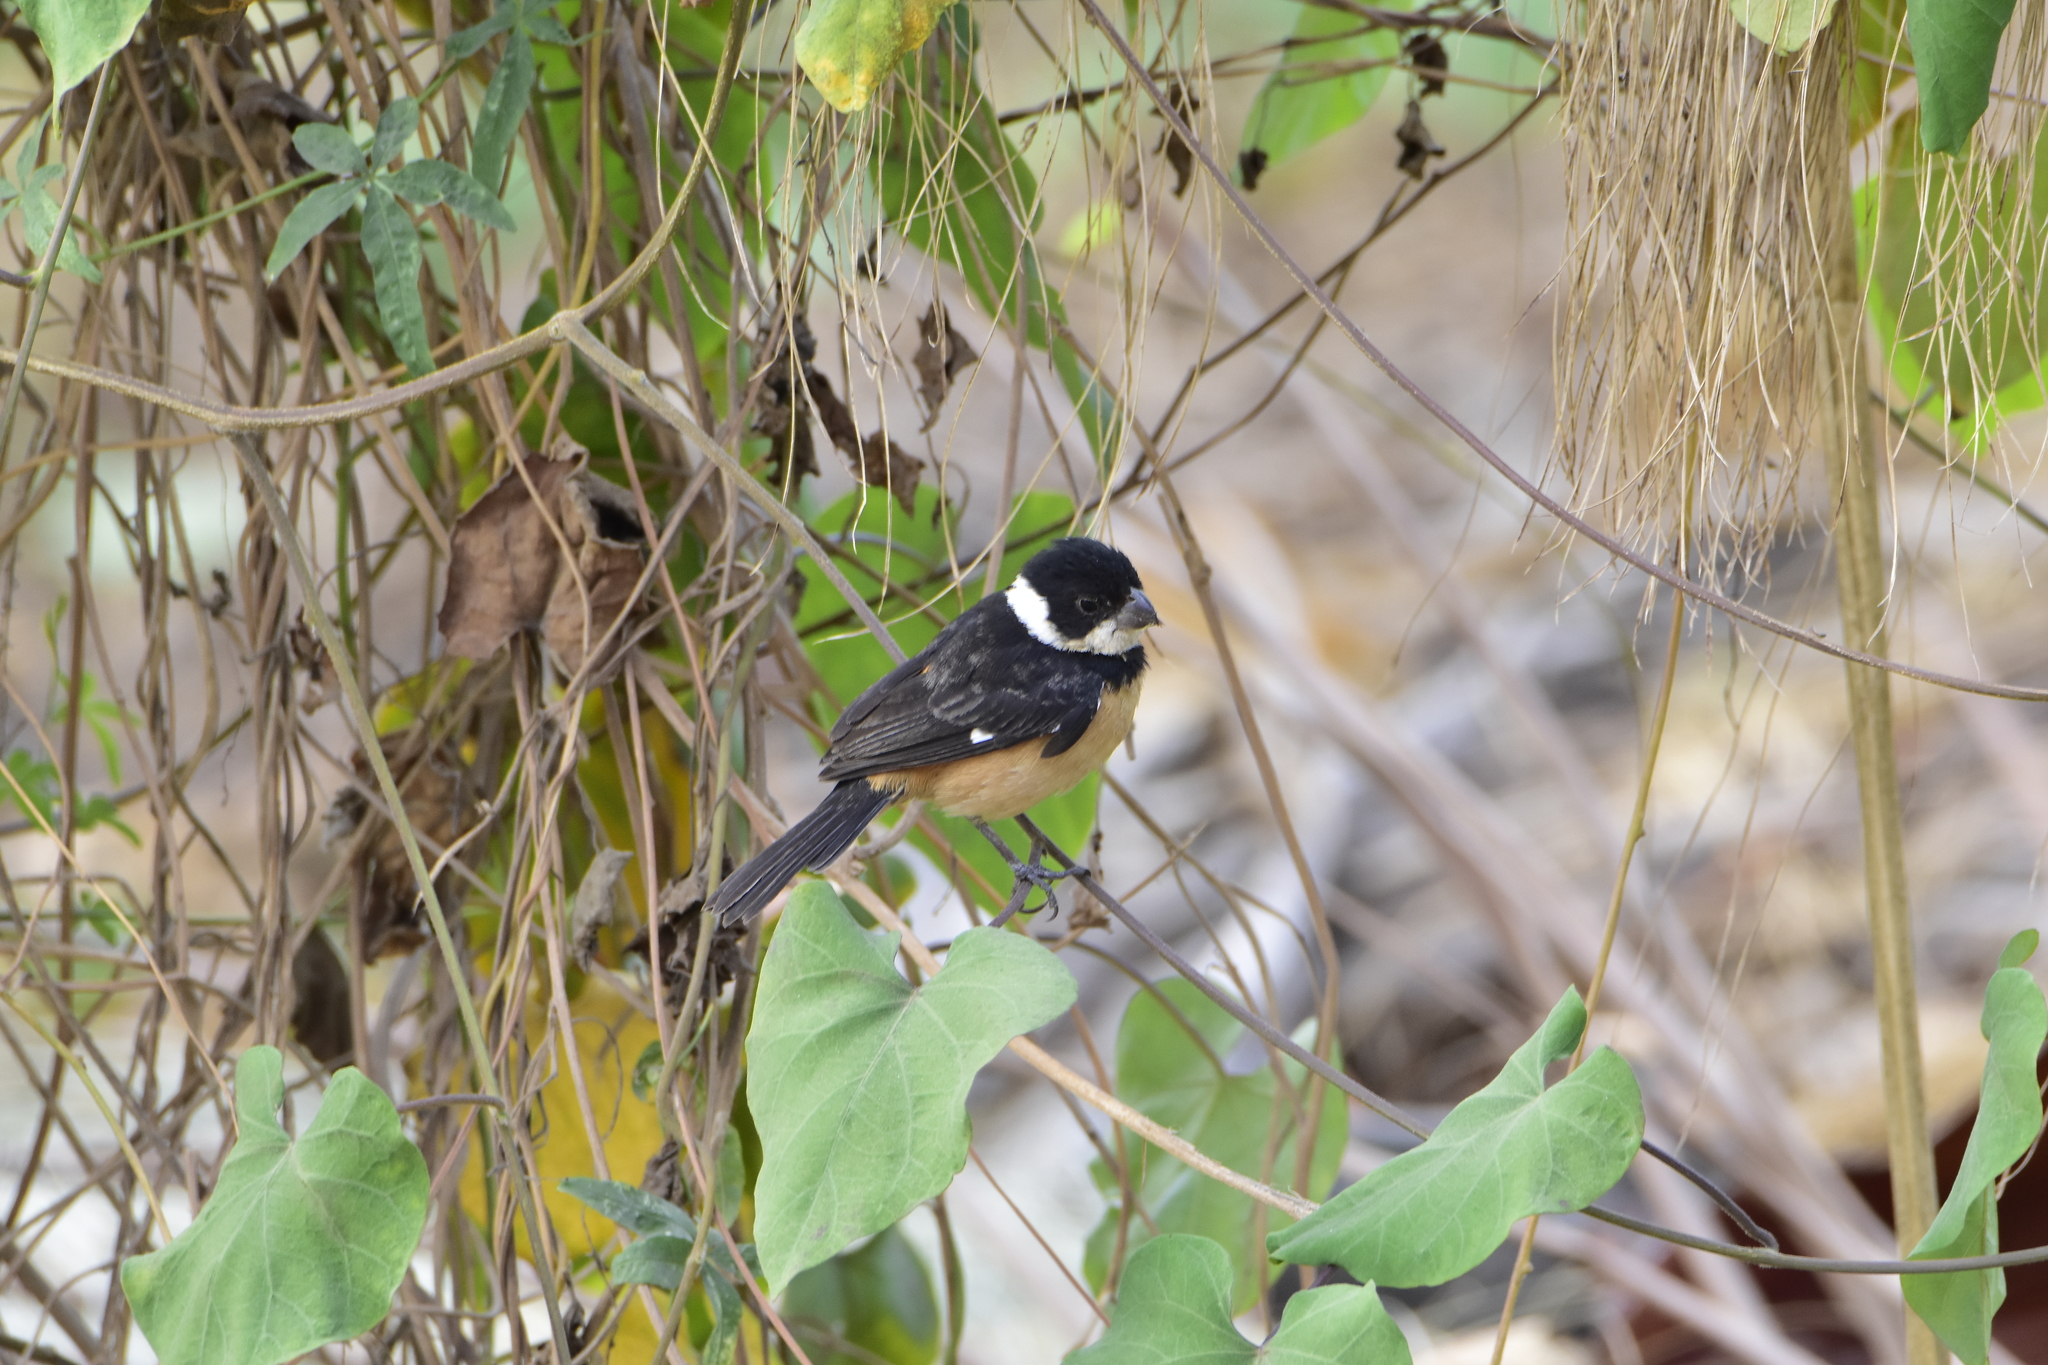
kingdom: Animalia
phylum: Chordata
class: Aves
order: Passeriformes
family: Thraupidae
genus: Sporophila
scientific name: Sporophila torqueola
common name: White-collared seedeater
